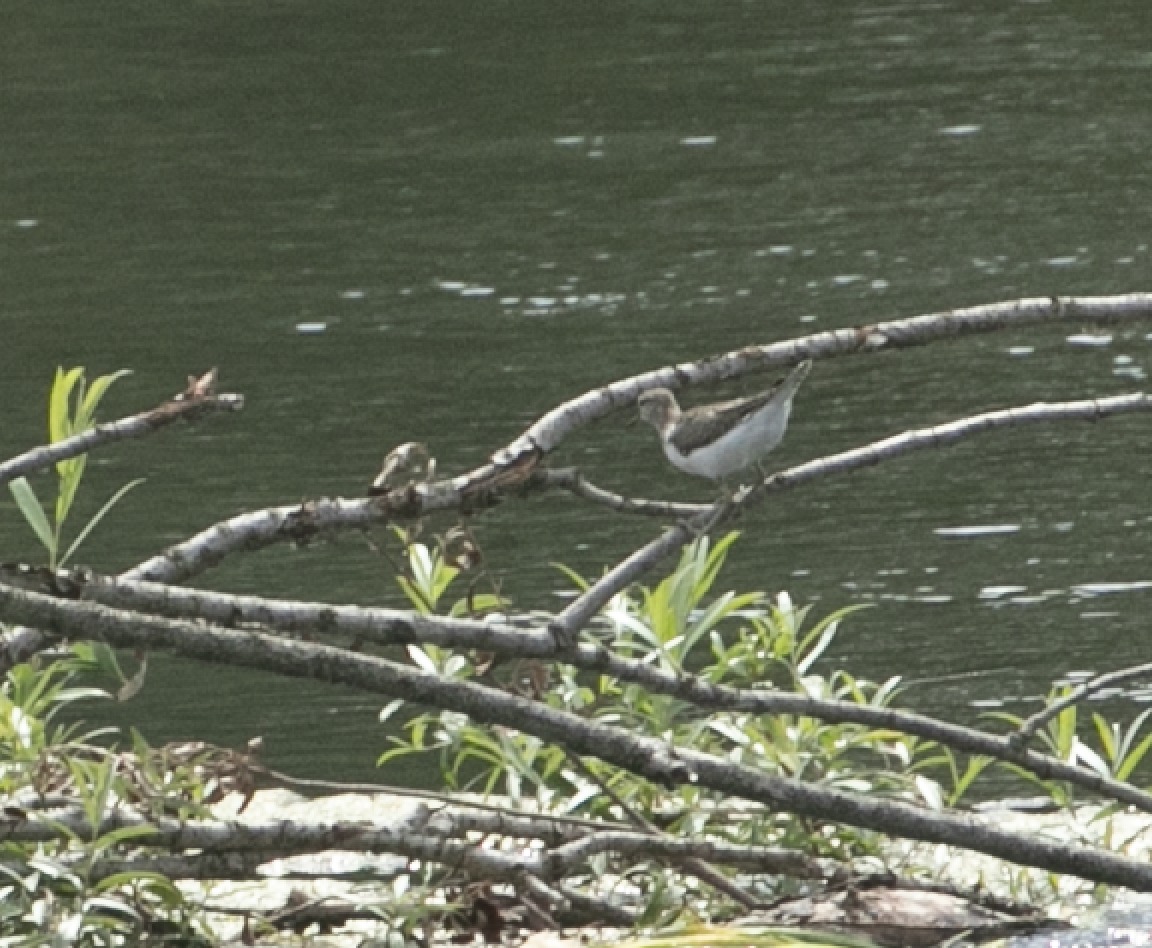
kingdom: Animalia
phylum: Chordata
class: Aves
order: Charadriiformes
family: Scolopacidae
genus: Actitis
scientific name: Actitis hypoleucos
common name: Common sandpiper
